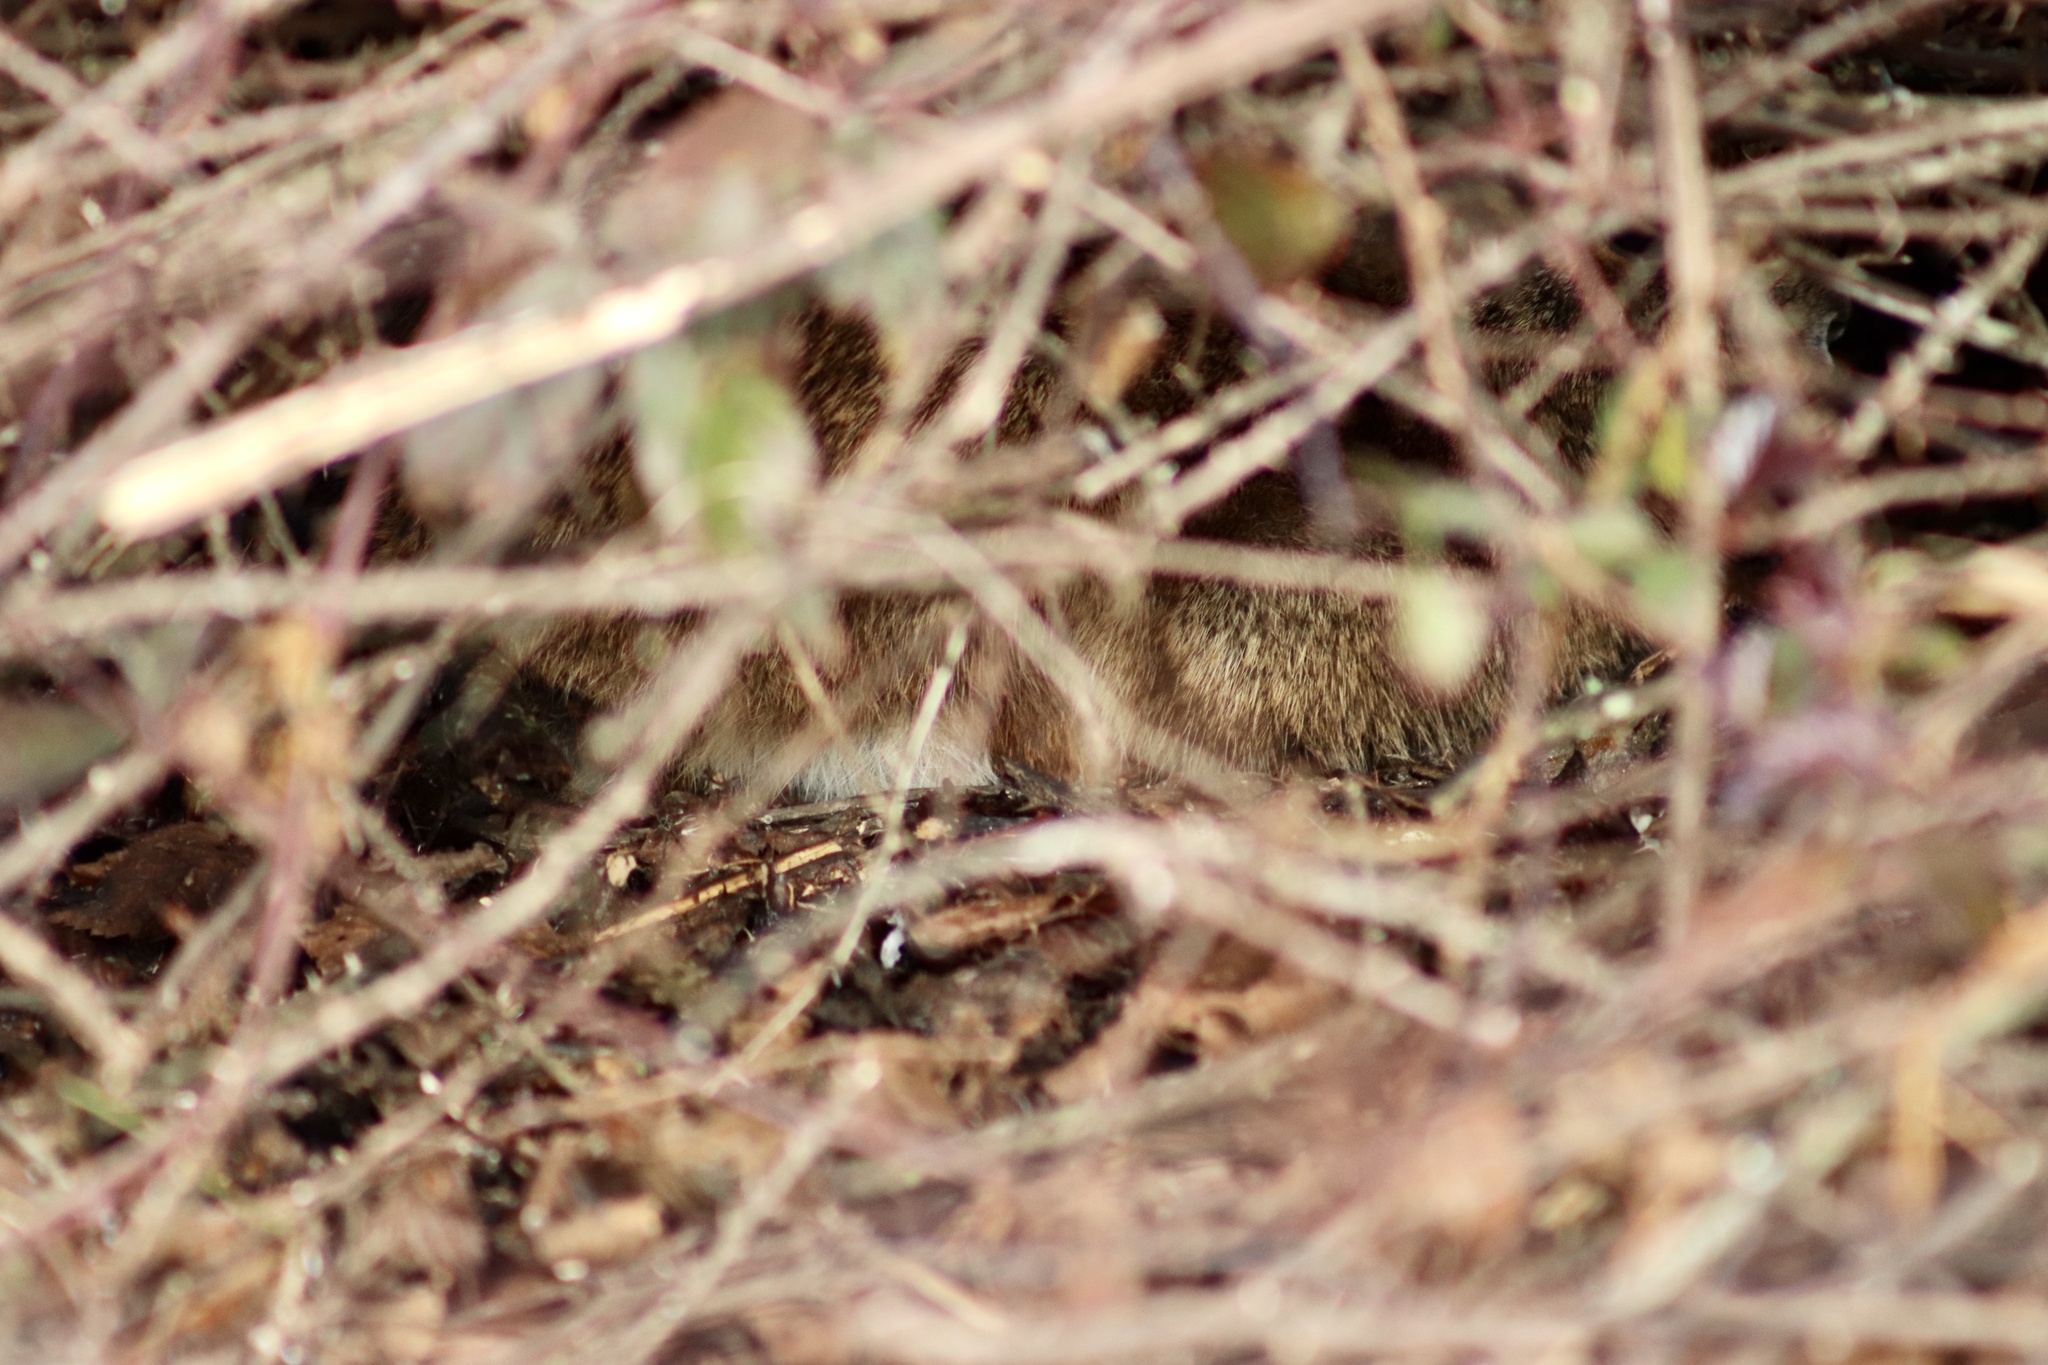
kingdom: Animalia
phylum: Chordata
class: Mammalia
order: Lagomorpha
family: Leporidae
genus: Sylvilagus
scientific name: Sylvilagus palustris
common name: Marsh rabbit
